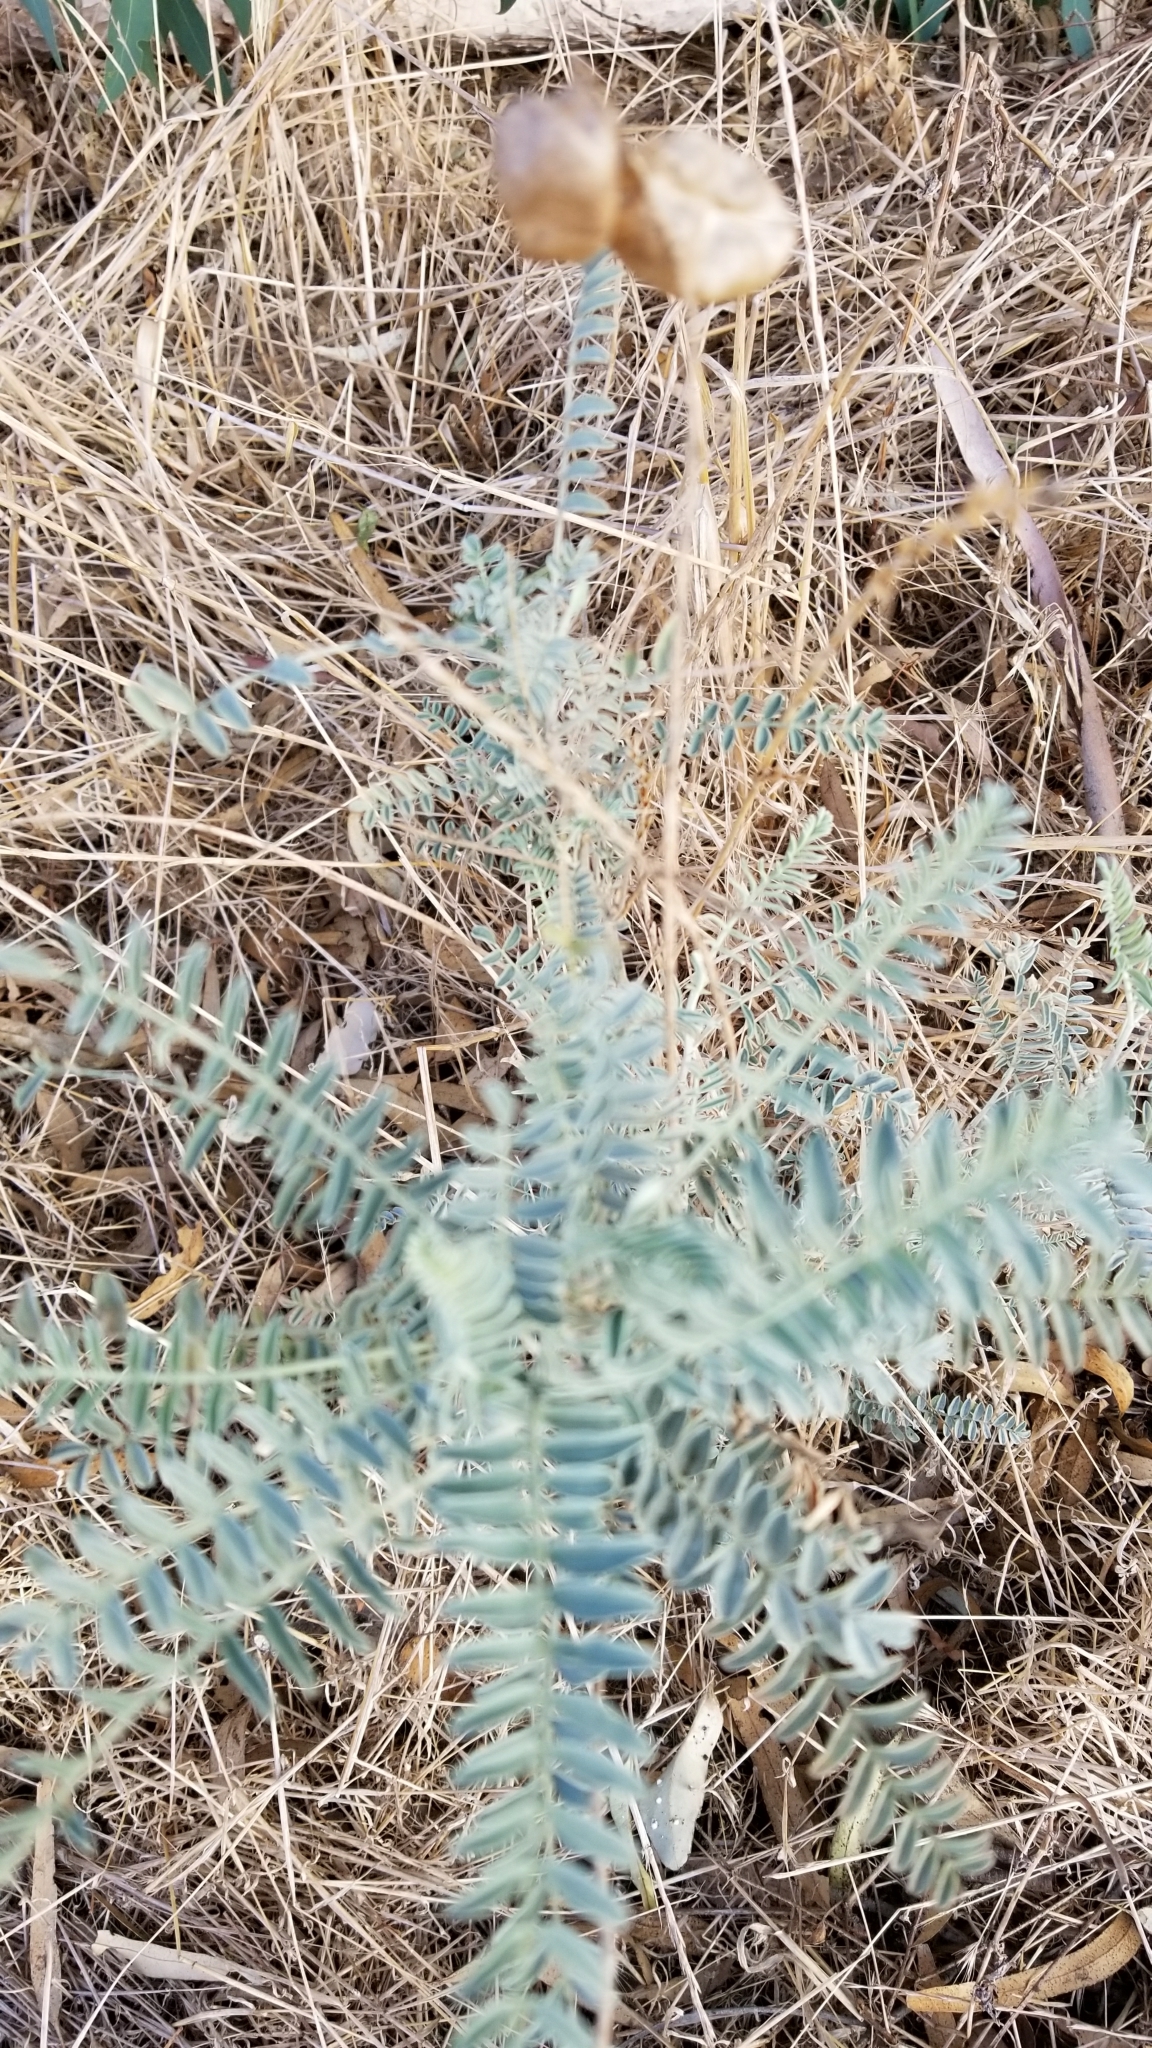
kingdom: Plantae
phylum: Tracheophyta
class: Magnoliopsida
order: Fabales
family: Fabaceae
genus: Astragalus
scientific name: Astragalus trichopodus
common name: Santa barbara milk-vetch
